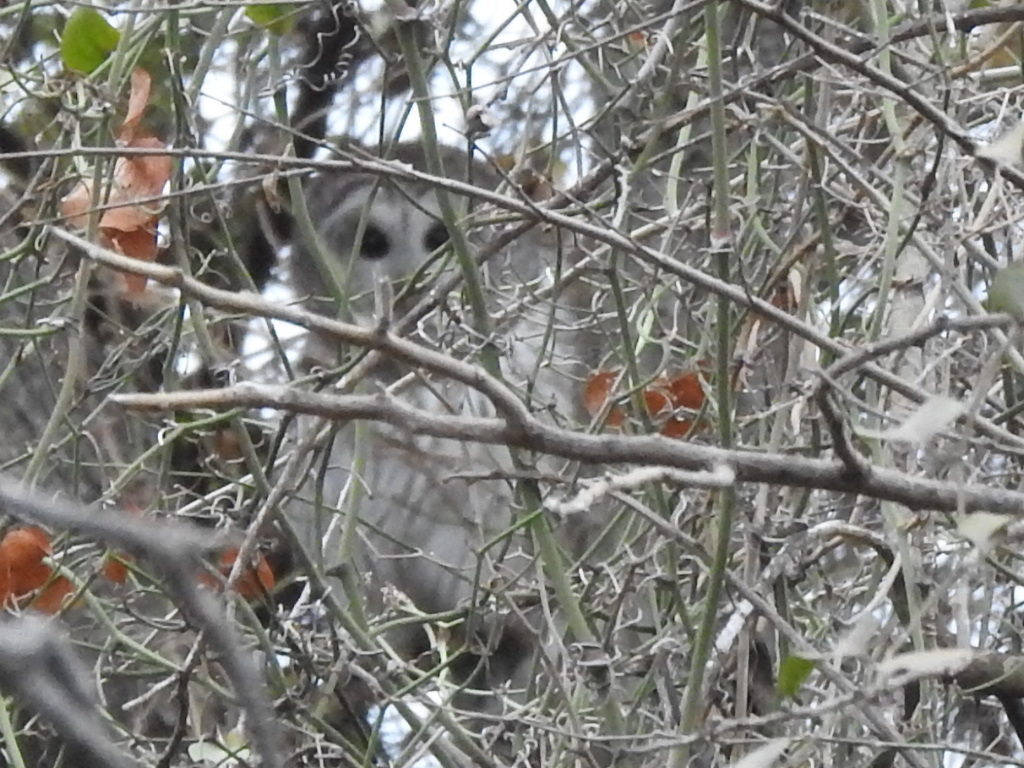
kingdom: Animalia
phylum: Chordata
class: Aves
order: Strigiformes
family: Strigidae
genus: Strix
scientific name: Strix varia
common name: Barred owl
